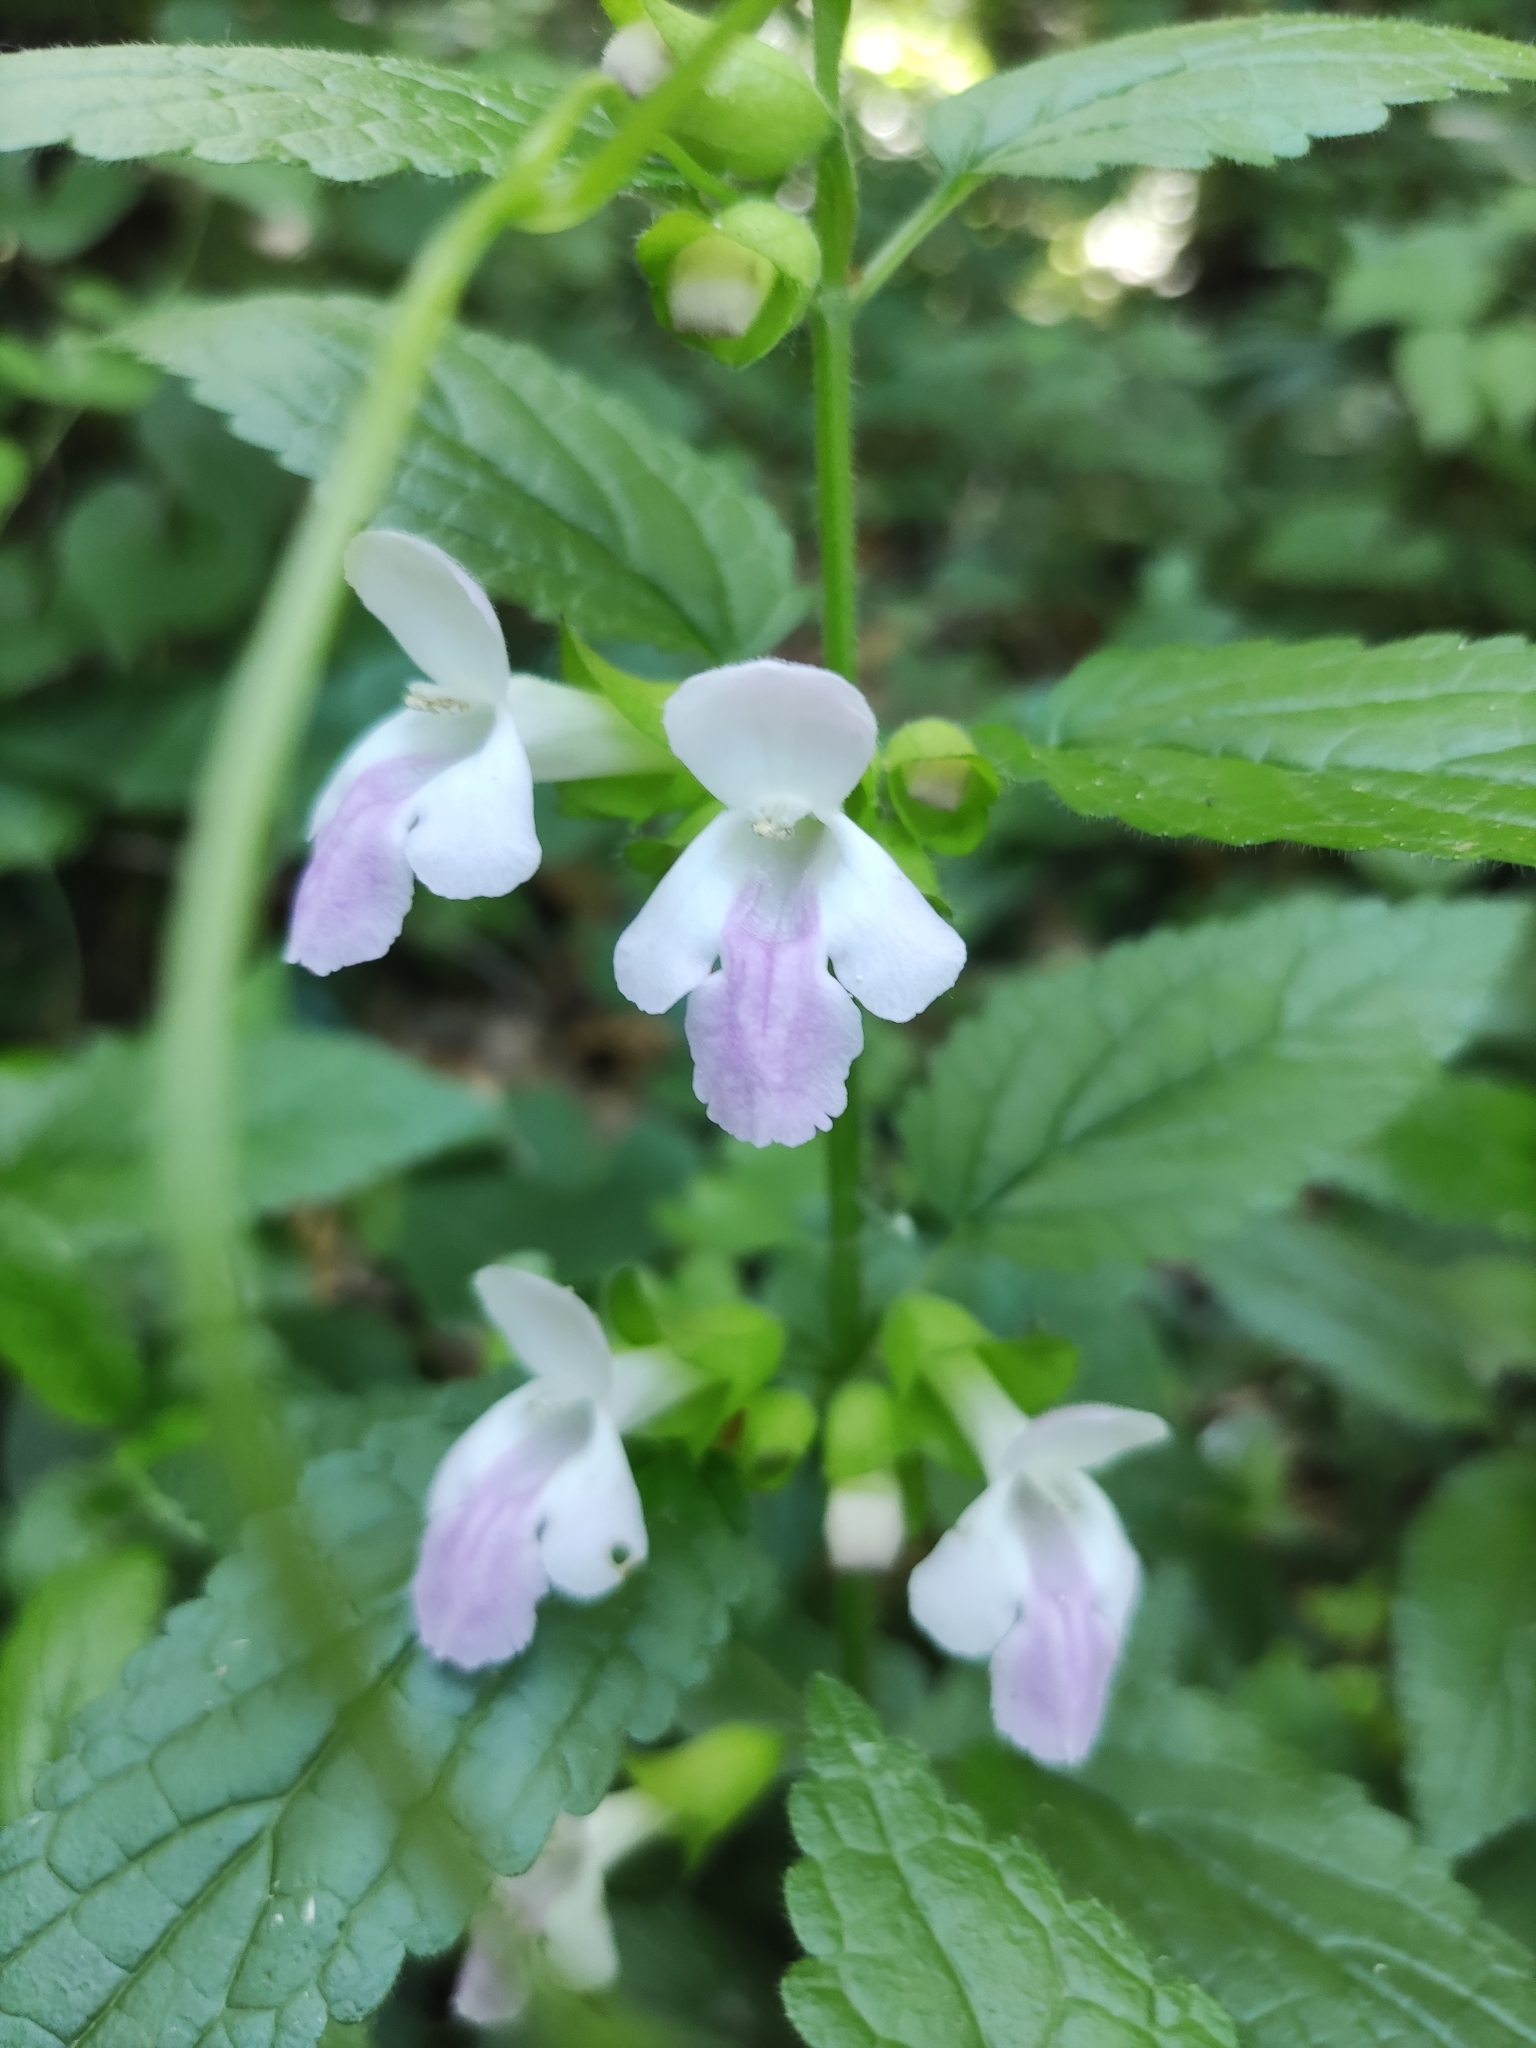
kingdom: Plantae
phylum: Tracheophyta
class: Magnoliopsida
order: Lamiales
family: Lamiaceae
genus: Melittis
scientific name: Melittis melissophyllum
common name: Bastard balm
